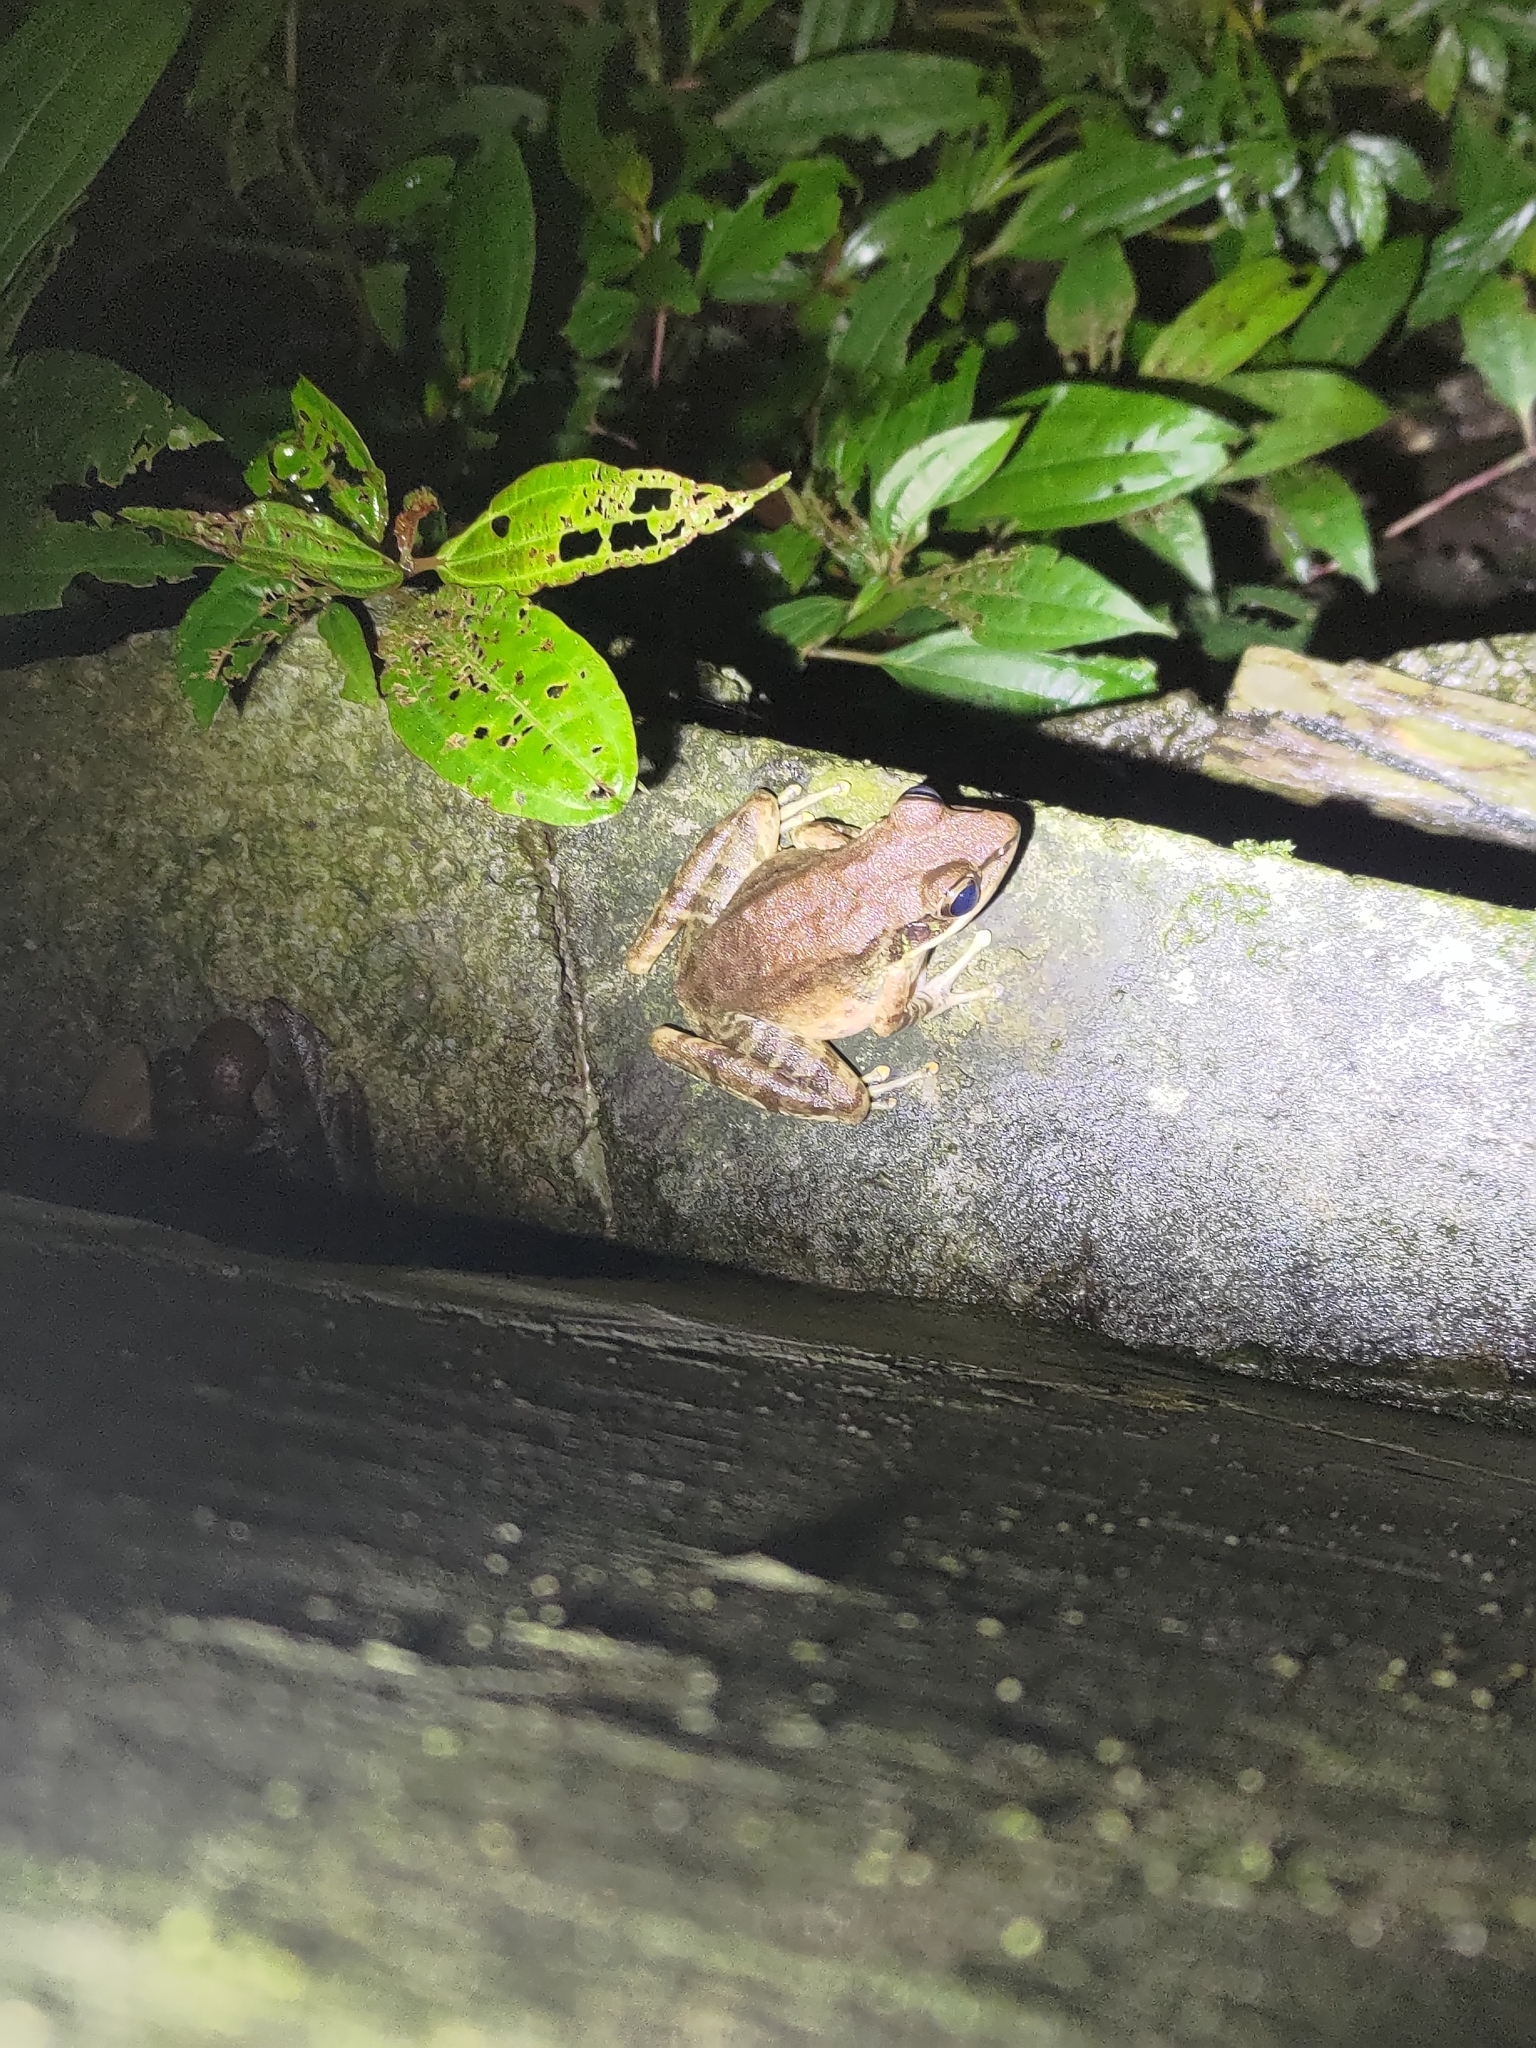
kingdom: Animalia
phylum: Chordata
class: Amphibia
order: Anura
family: Ranidae
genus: Odorrana
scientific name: Odorrana swinhoana
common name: Bangkimtsing frog
